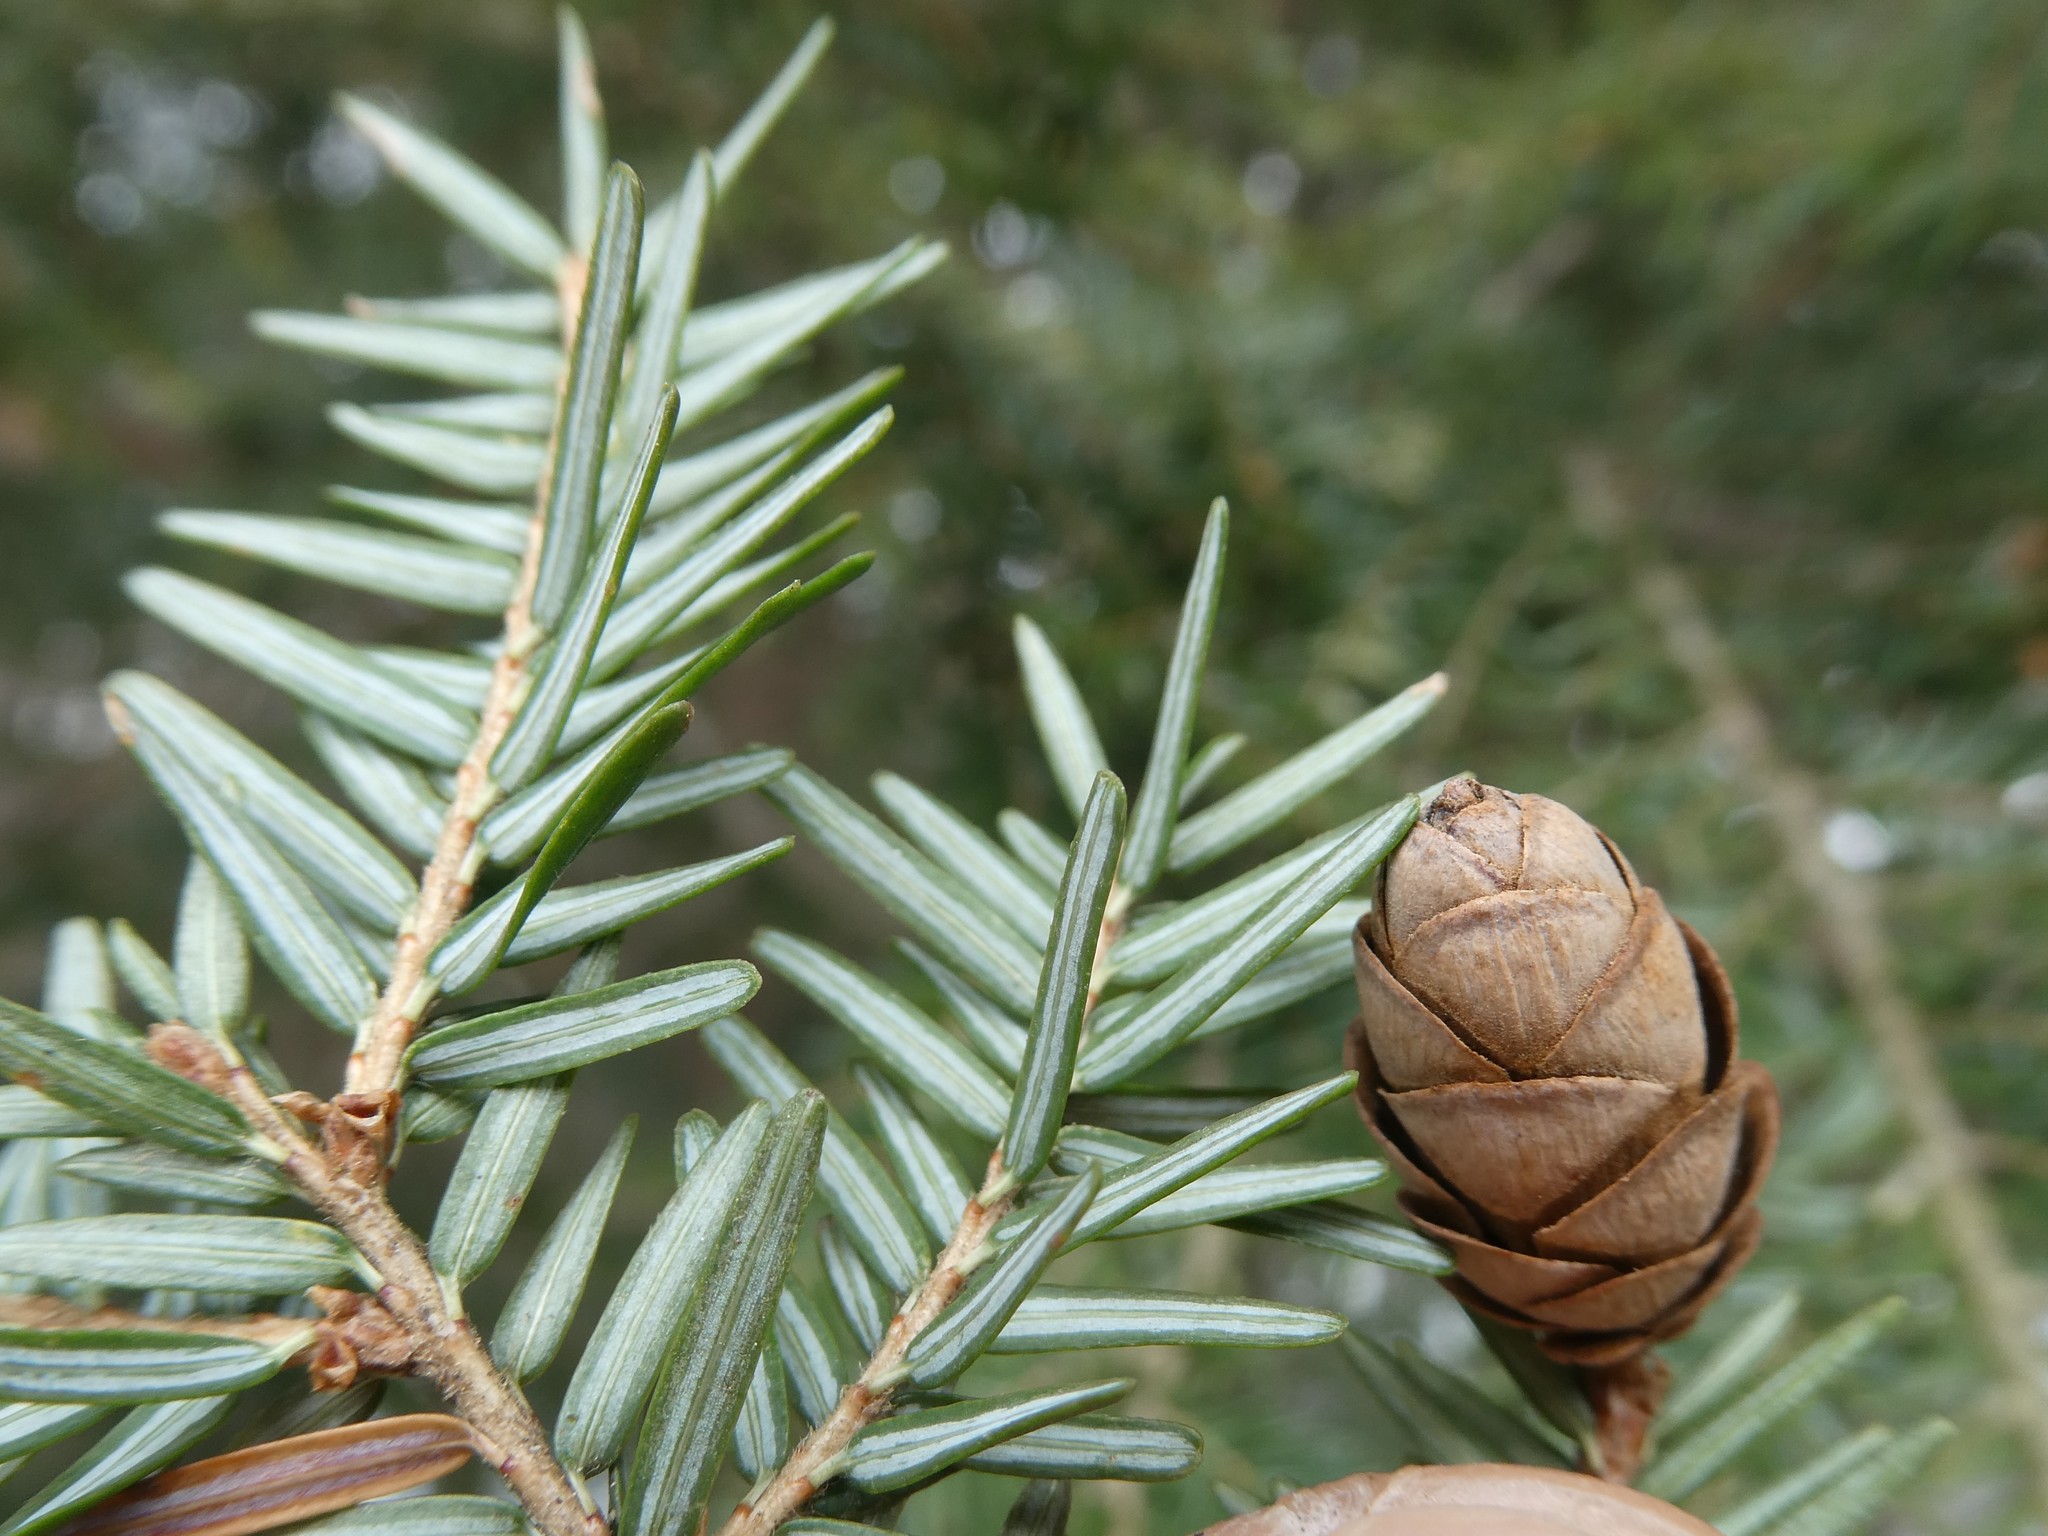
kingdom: Plantae
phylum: Tracheophyta
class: Pinopsida
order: Pinales
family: Pinaceae
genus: Tsuga
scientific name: Tsuga canadensis
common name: Eastern hemlock
